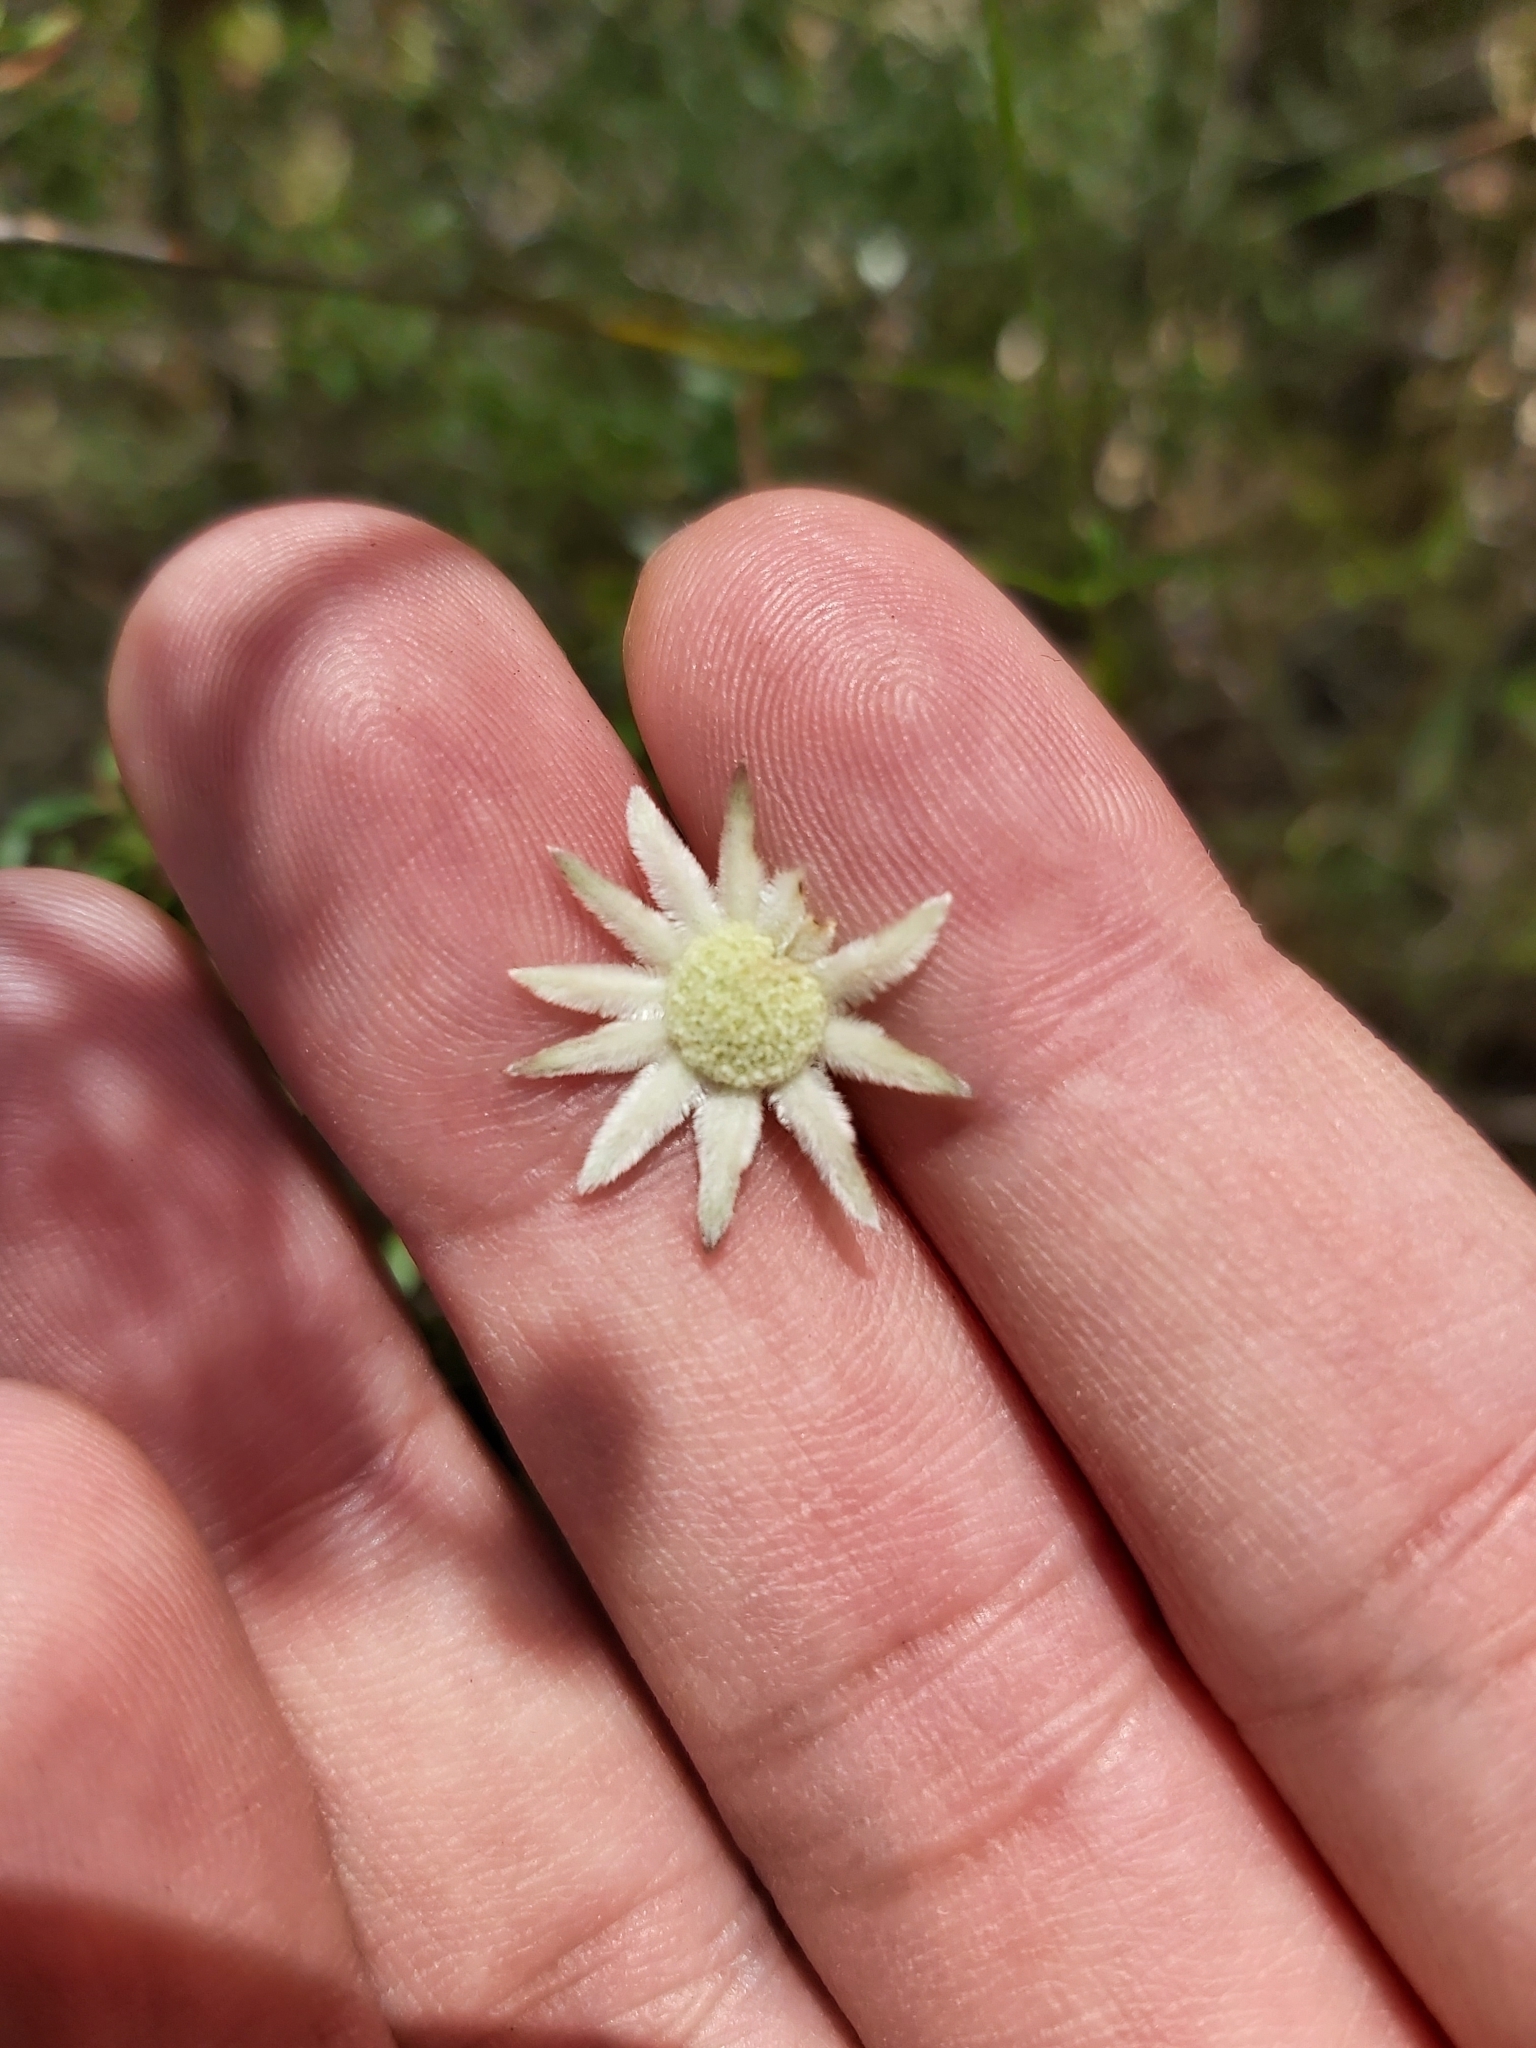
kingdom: Plantae
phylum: Tracheophyta
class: Magnoliopsida
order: Apiales
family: Apiaceae
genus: Actinotus
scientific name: Actinotus minor
